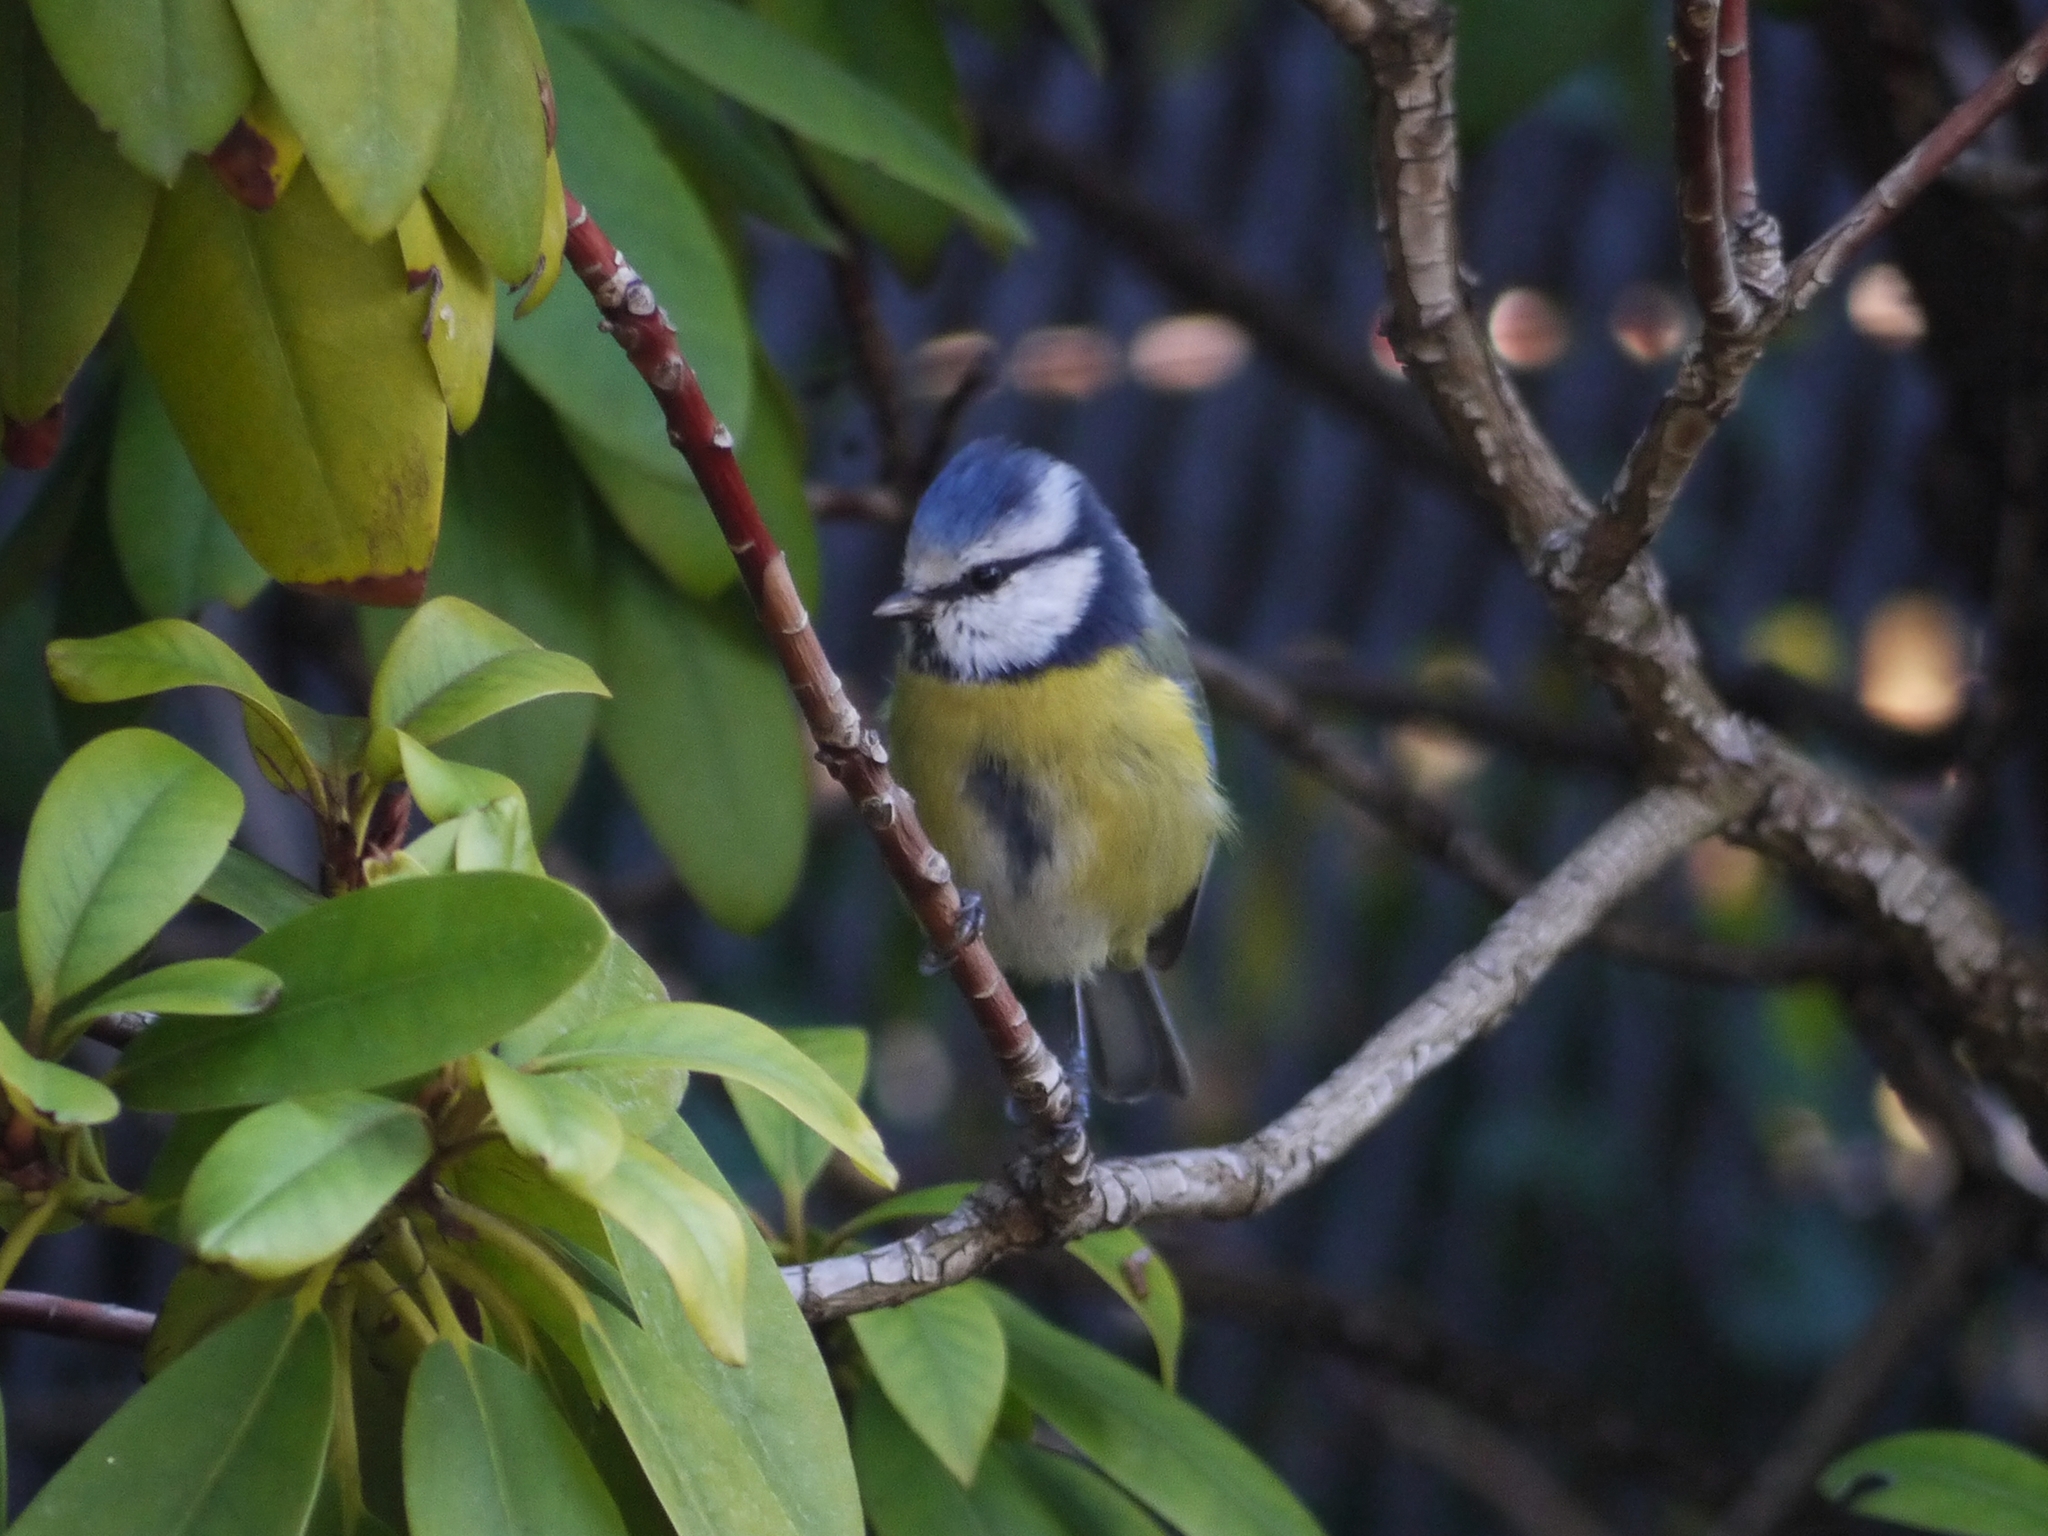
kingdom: Animalia
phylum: Chordata
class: Aves
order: Passeriformes
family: Paridae
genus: Cyanistes
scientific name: Cyanistes caeruleus
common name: Eurasian blue tit
